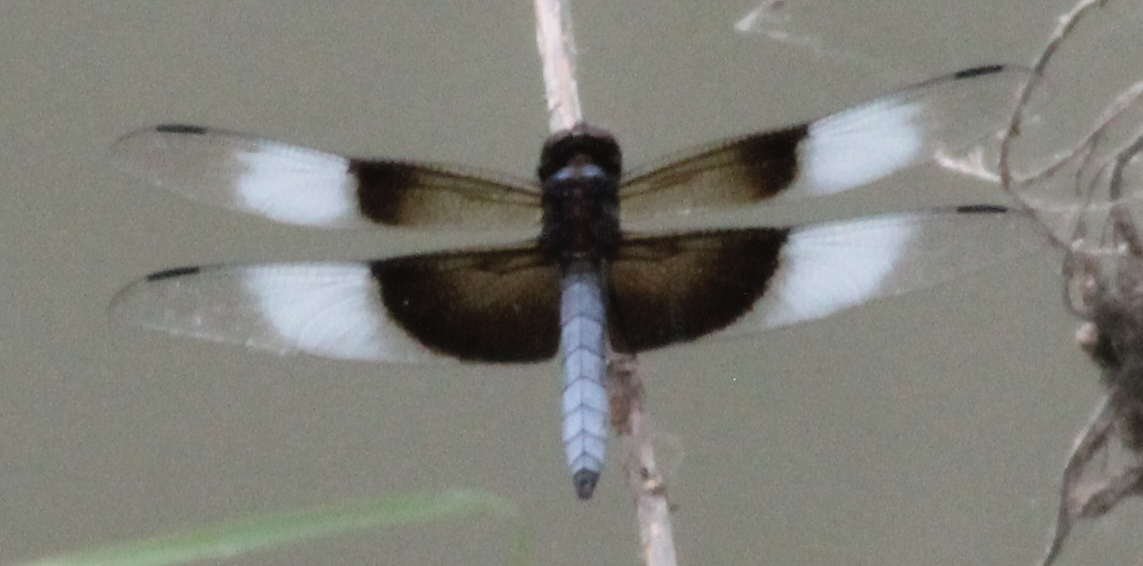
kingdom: Animalia
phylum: Arthropoda
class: Insecta
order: Odonata
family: Libellulidae
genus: Libellula
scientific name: Libellula luctuosa
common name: Widow skimmer
